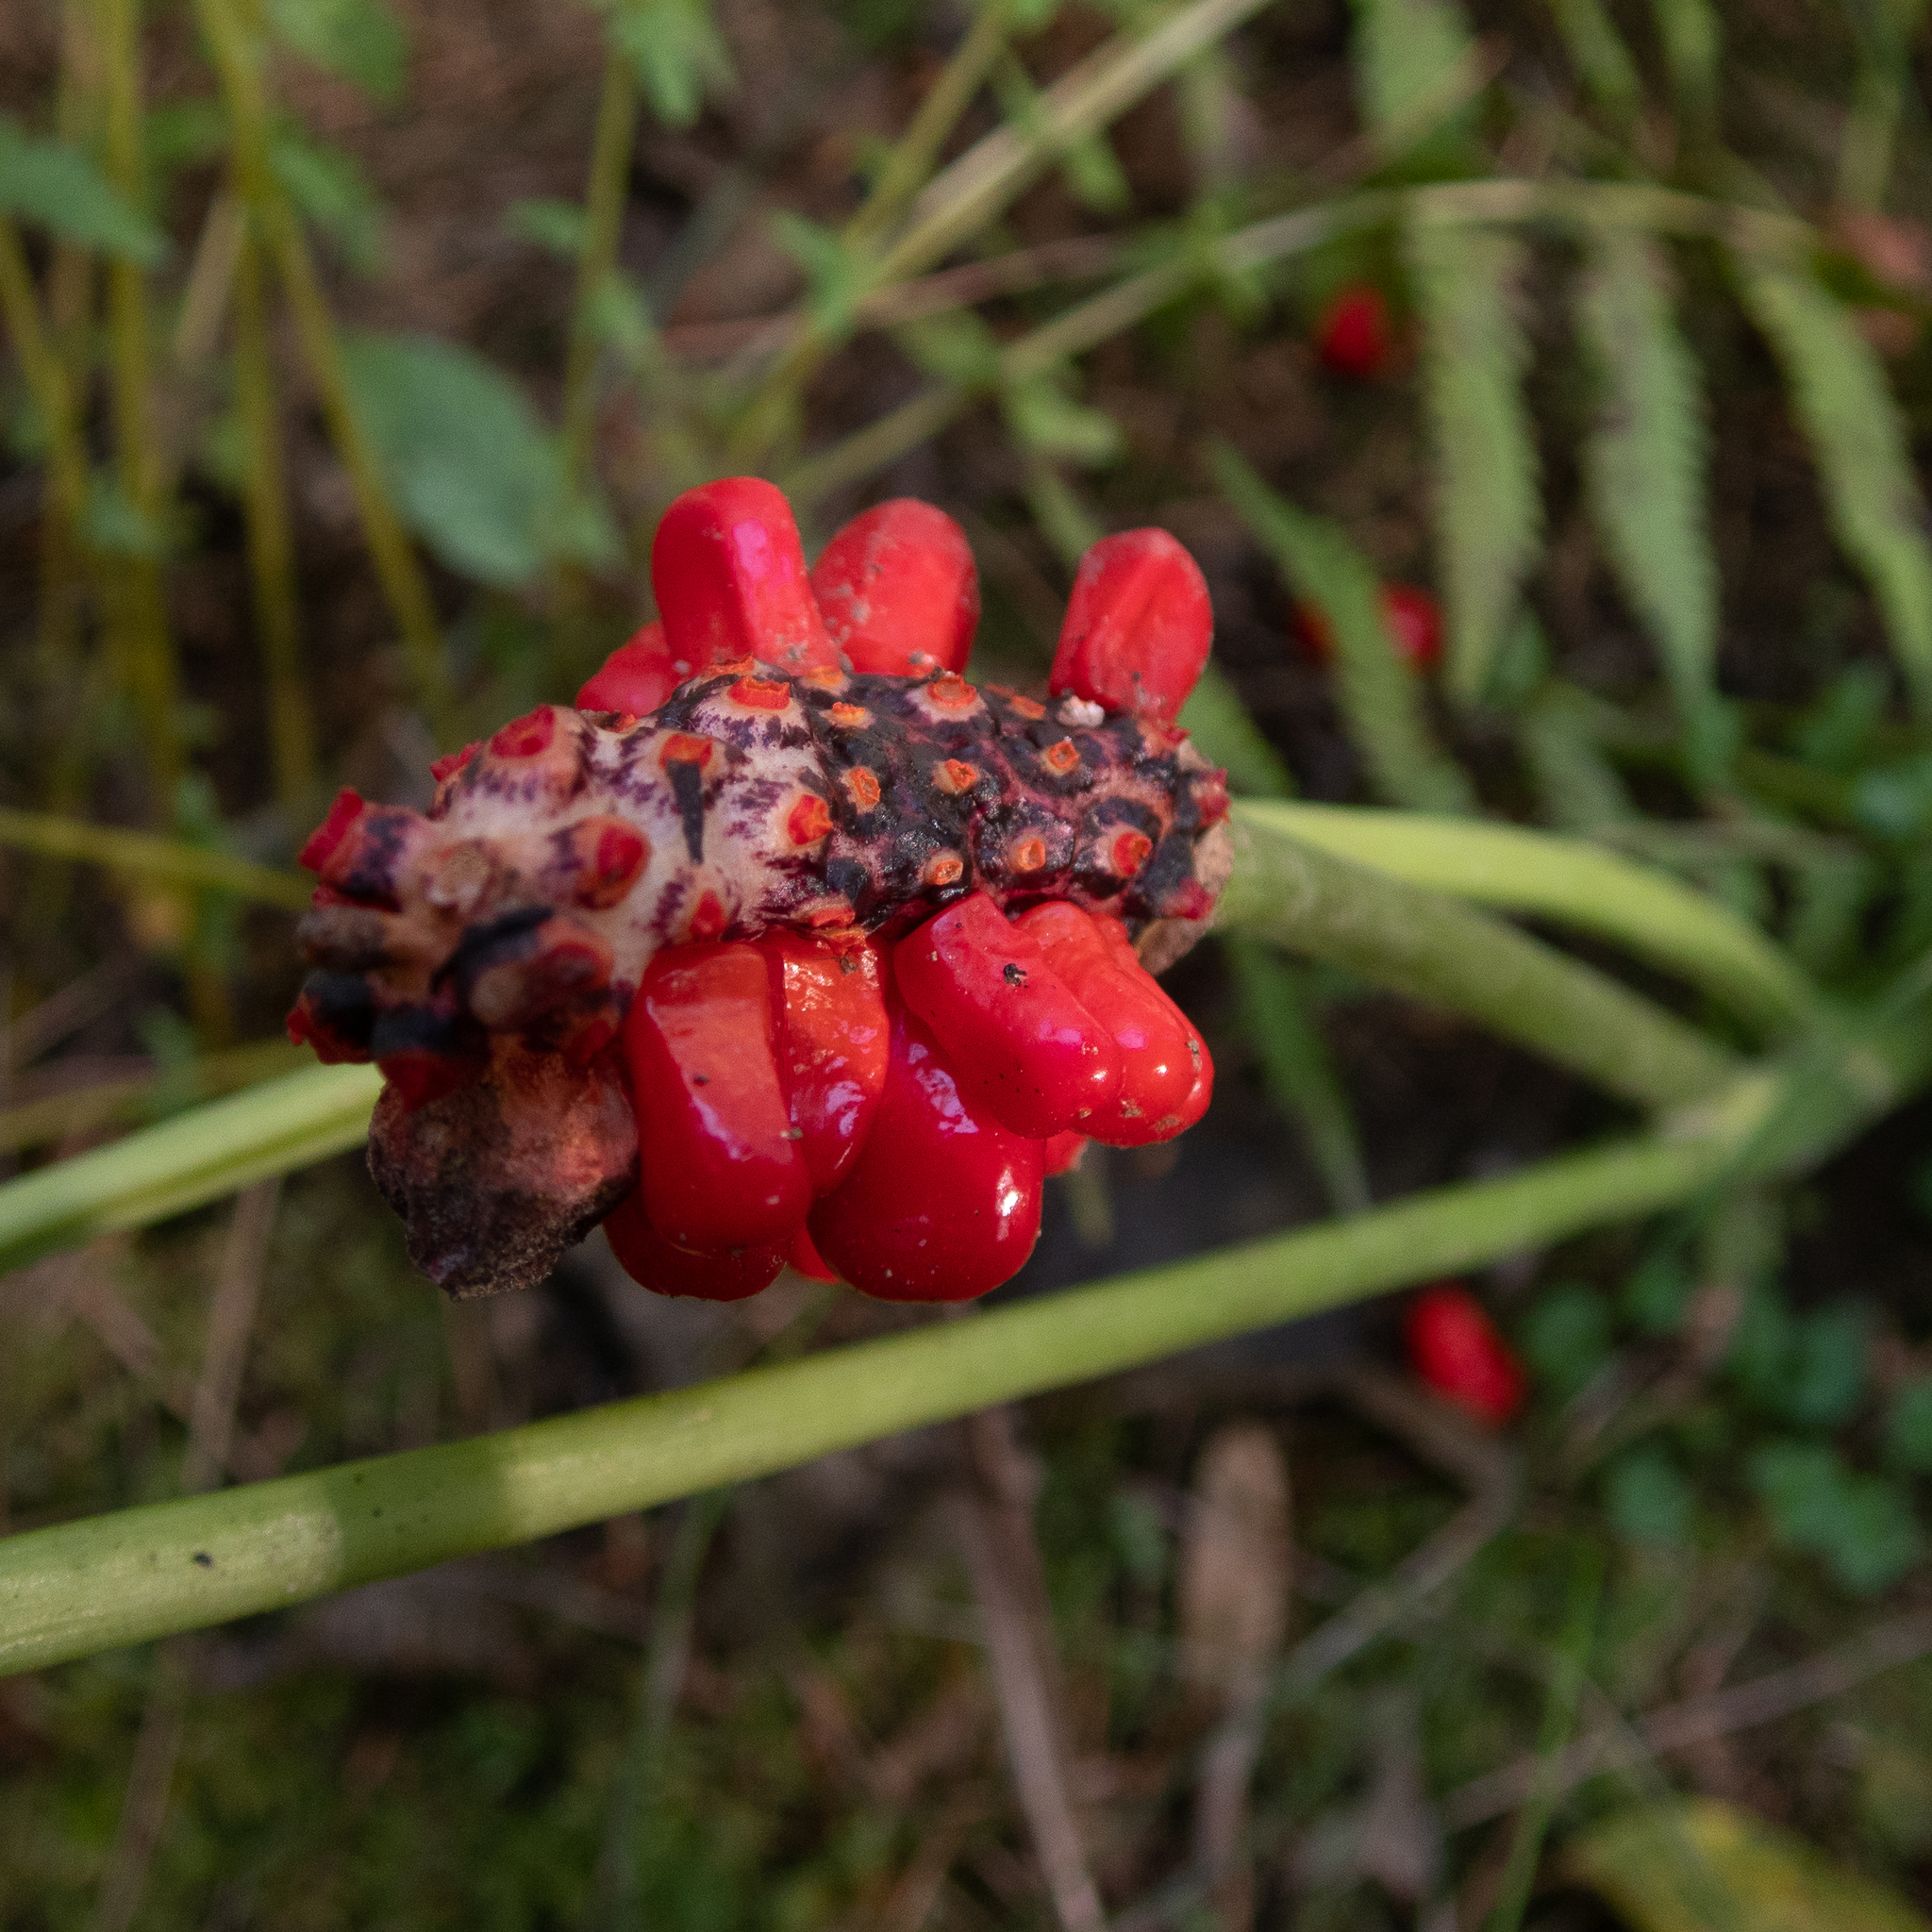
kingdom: Plantae
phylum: Tracheophyta
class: Liliopsida
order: Alismatales
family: Araceae
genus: Arisaema
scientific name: Arisaema triphyllum
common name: Jack-in-the-pulpit
